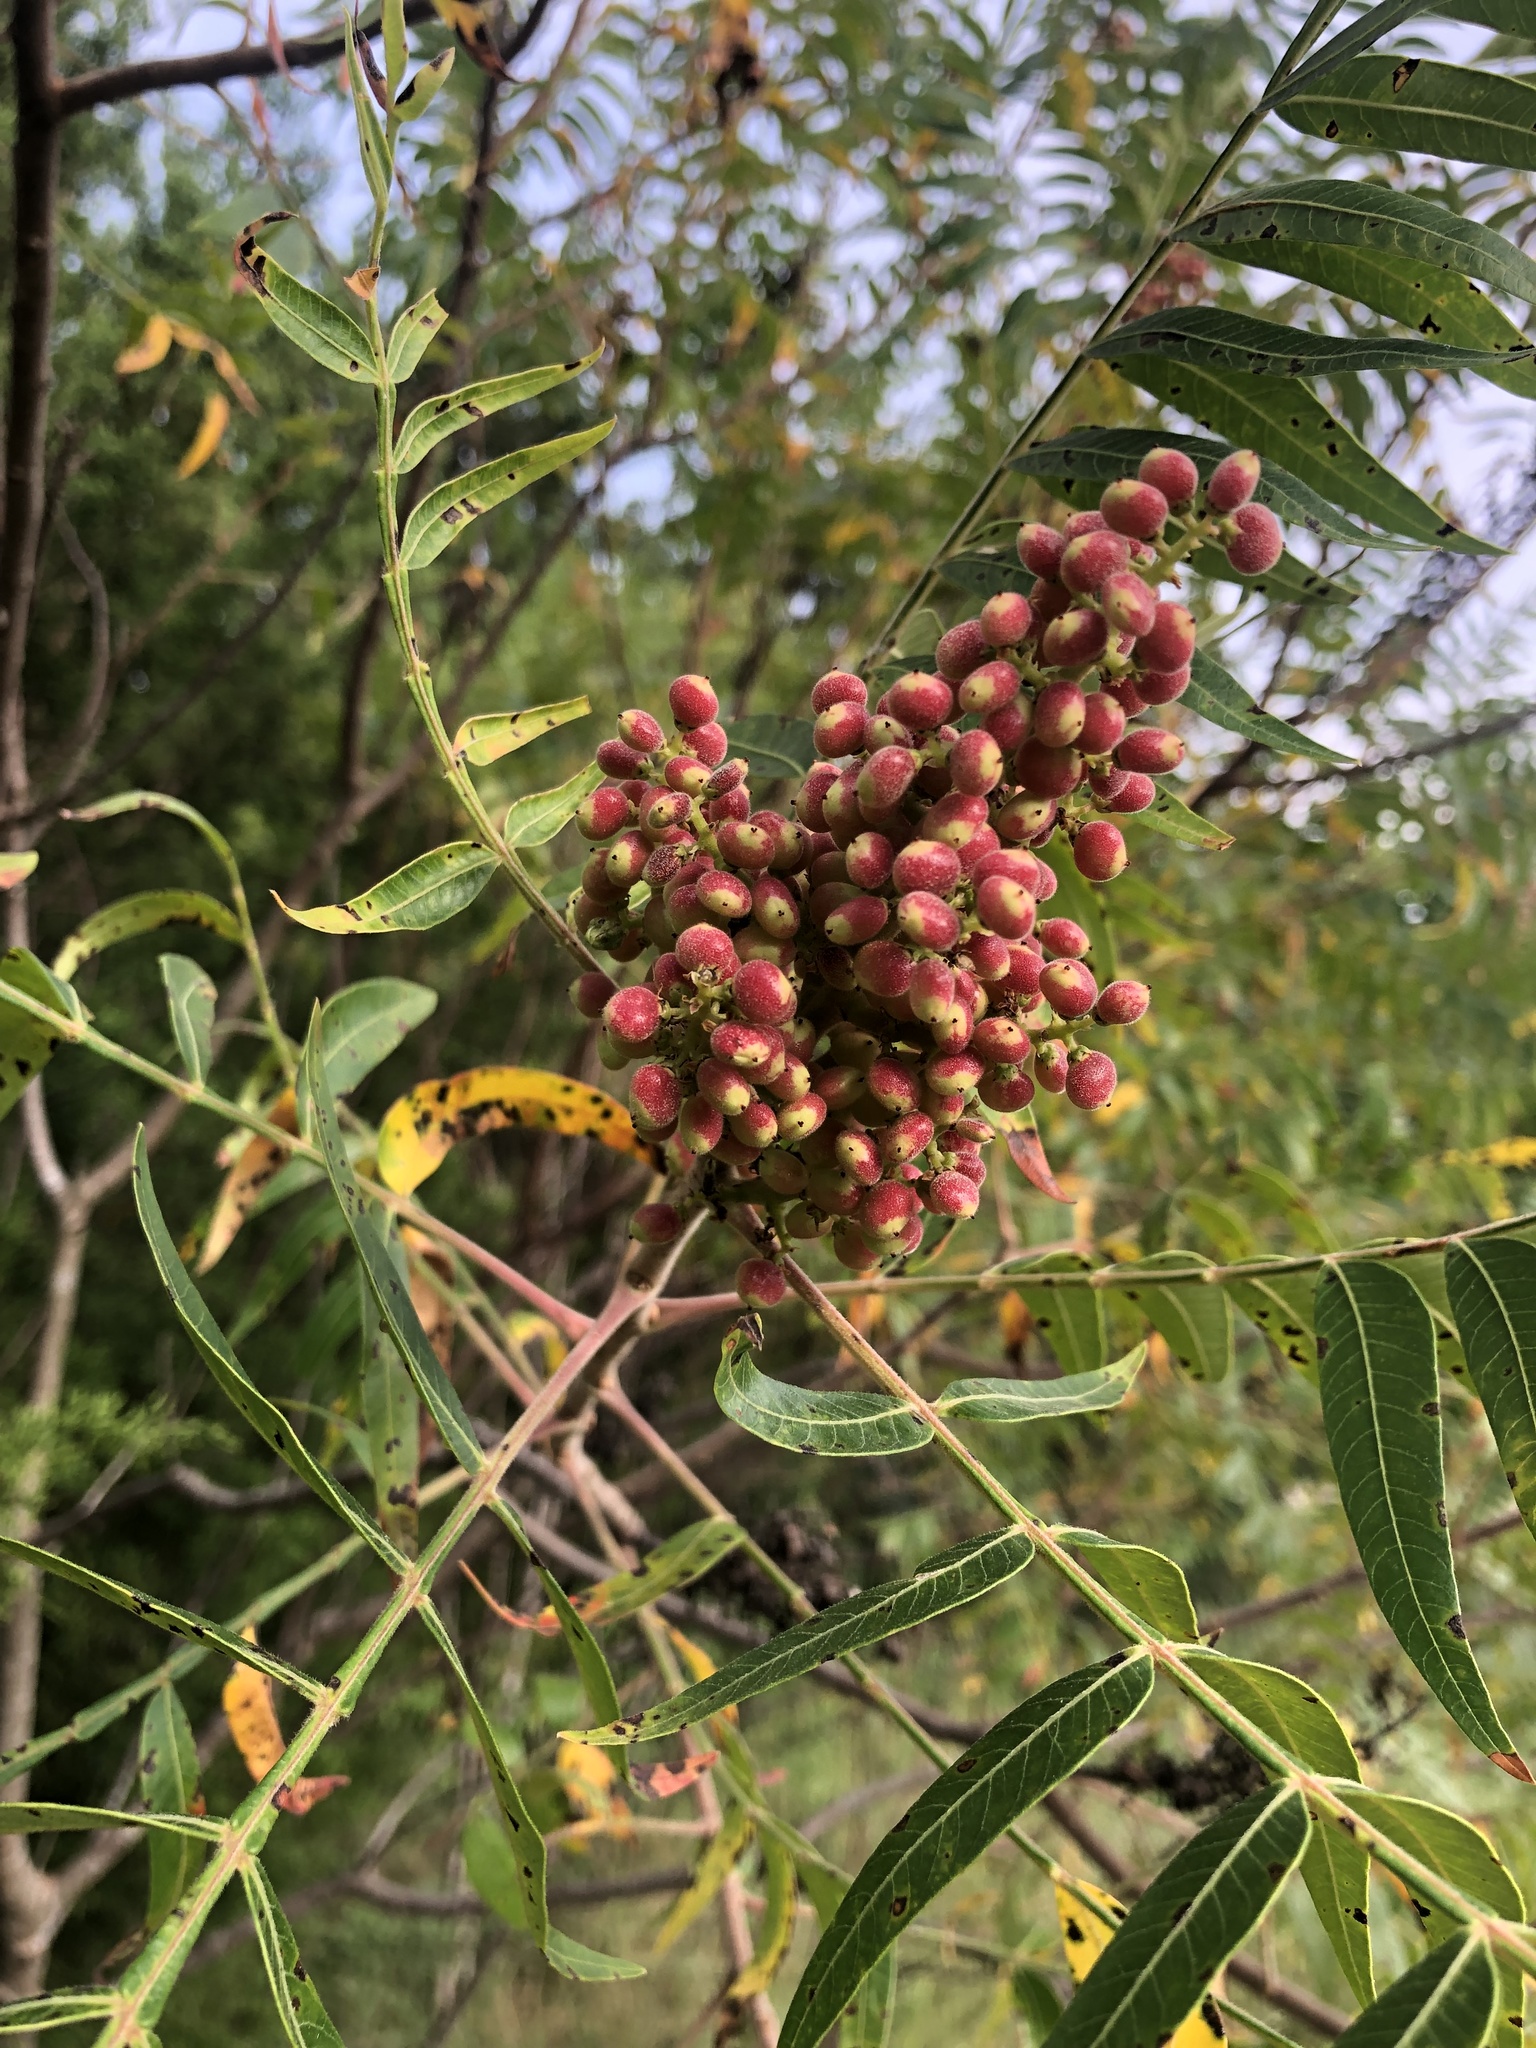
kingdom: Plantae
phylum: Tracheophyta
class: Magnoliopsida
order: Sapindales
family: Anacardiaceae
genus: Rhus
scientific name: Rhus lanceolata
